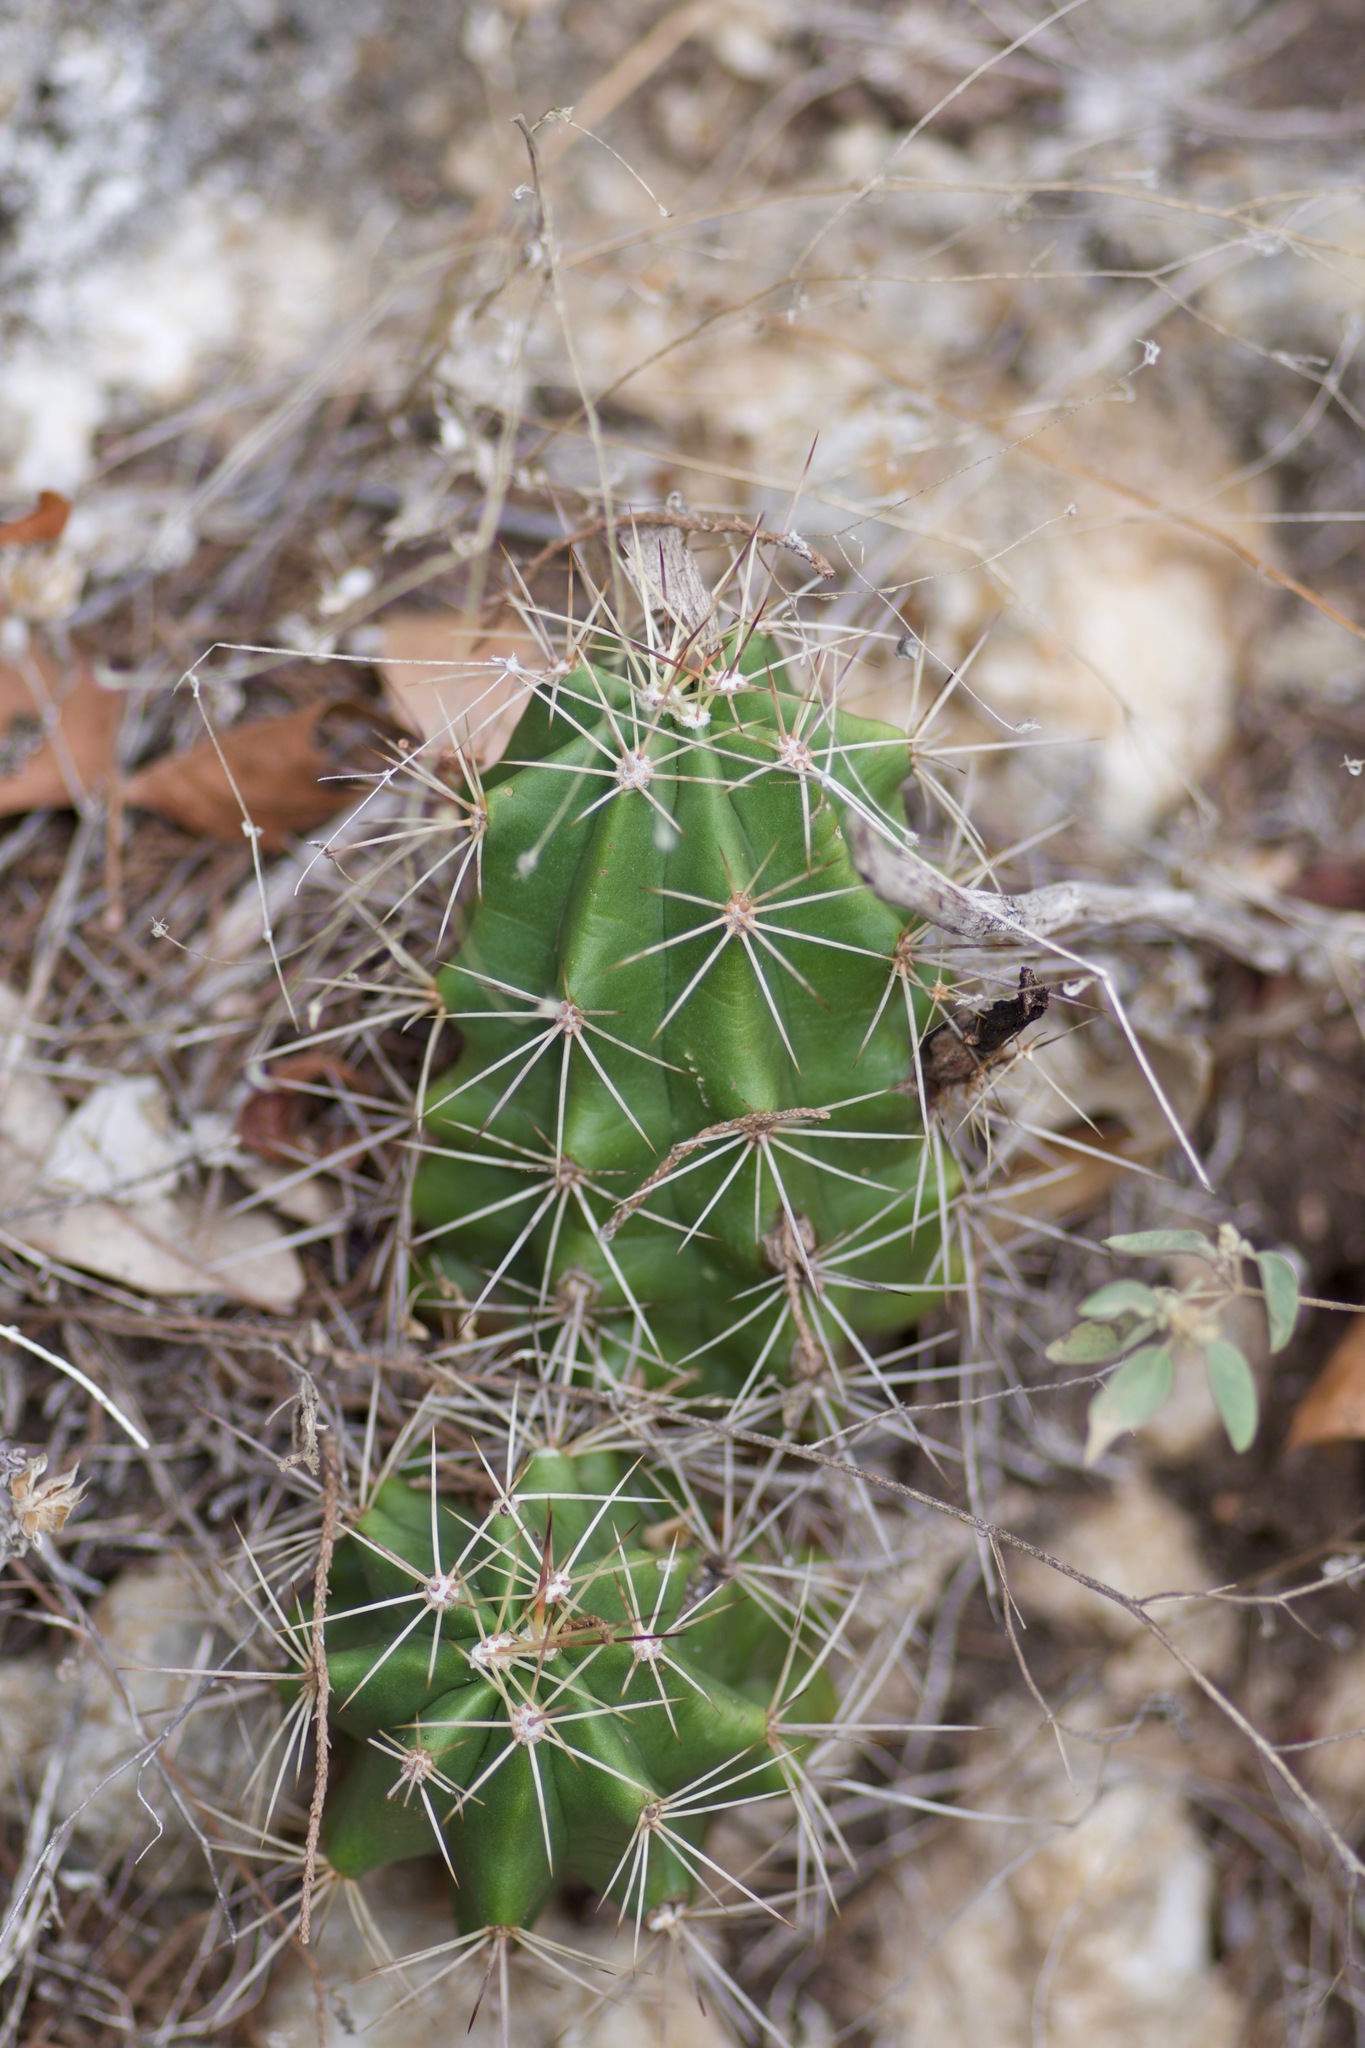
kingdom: Plantae
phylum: Tracheophyta
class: Magnoliopsida
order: Caryophyllales
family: Cactaceae
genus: Echinocereus
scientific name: Echinocereus coccineus
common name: Scarlet hedgehog cactus
